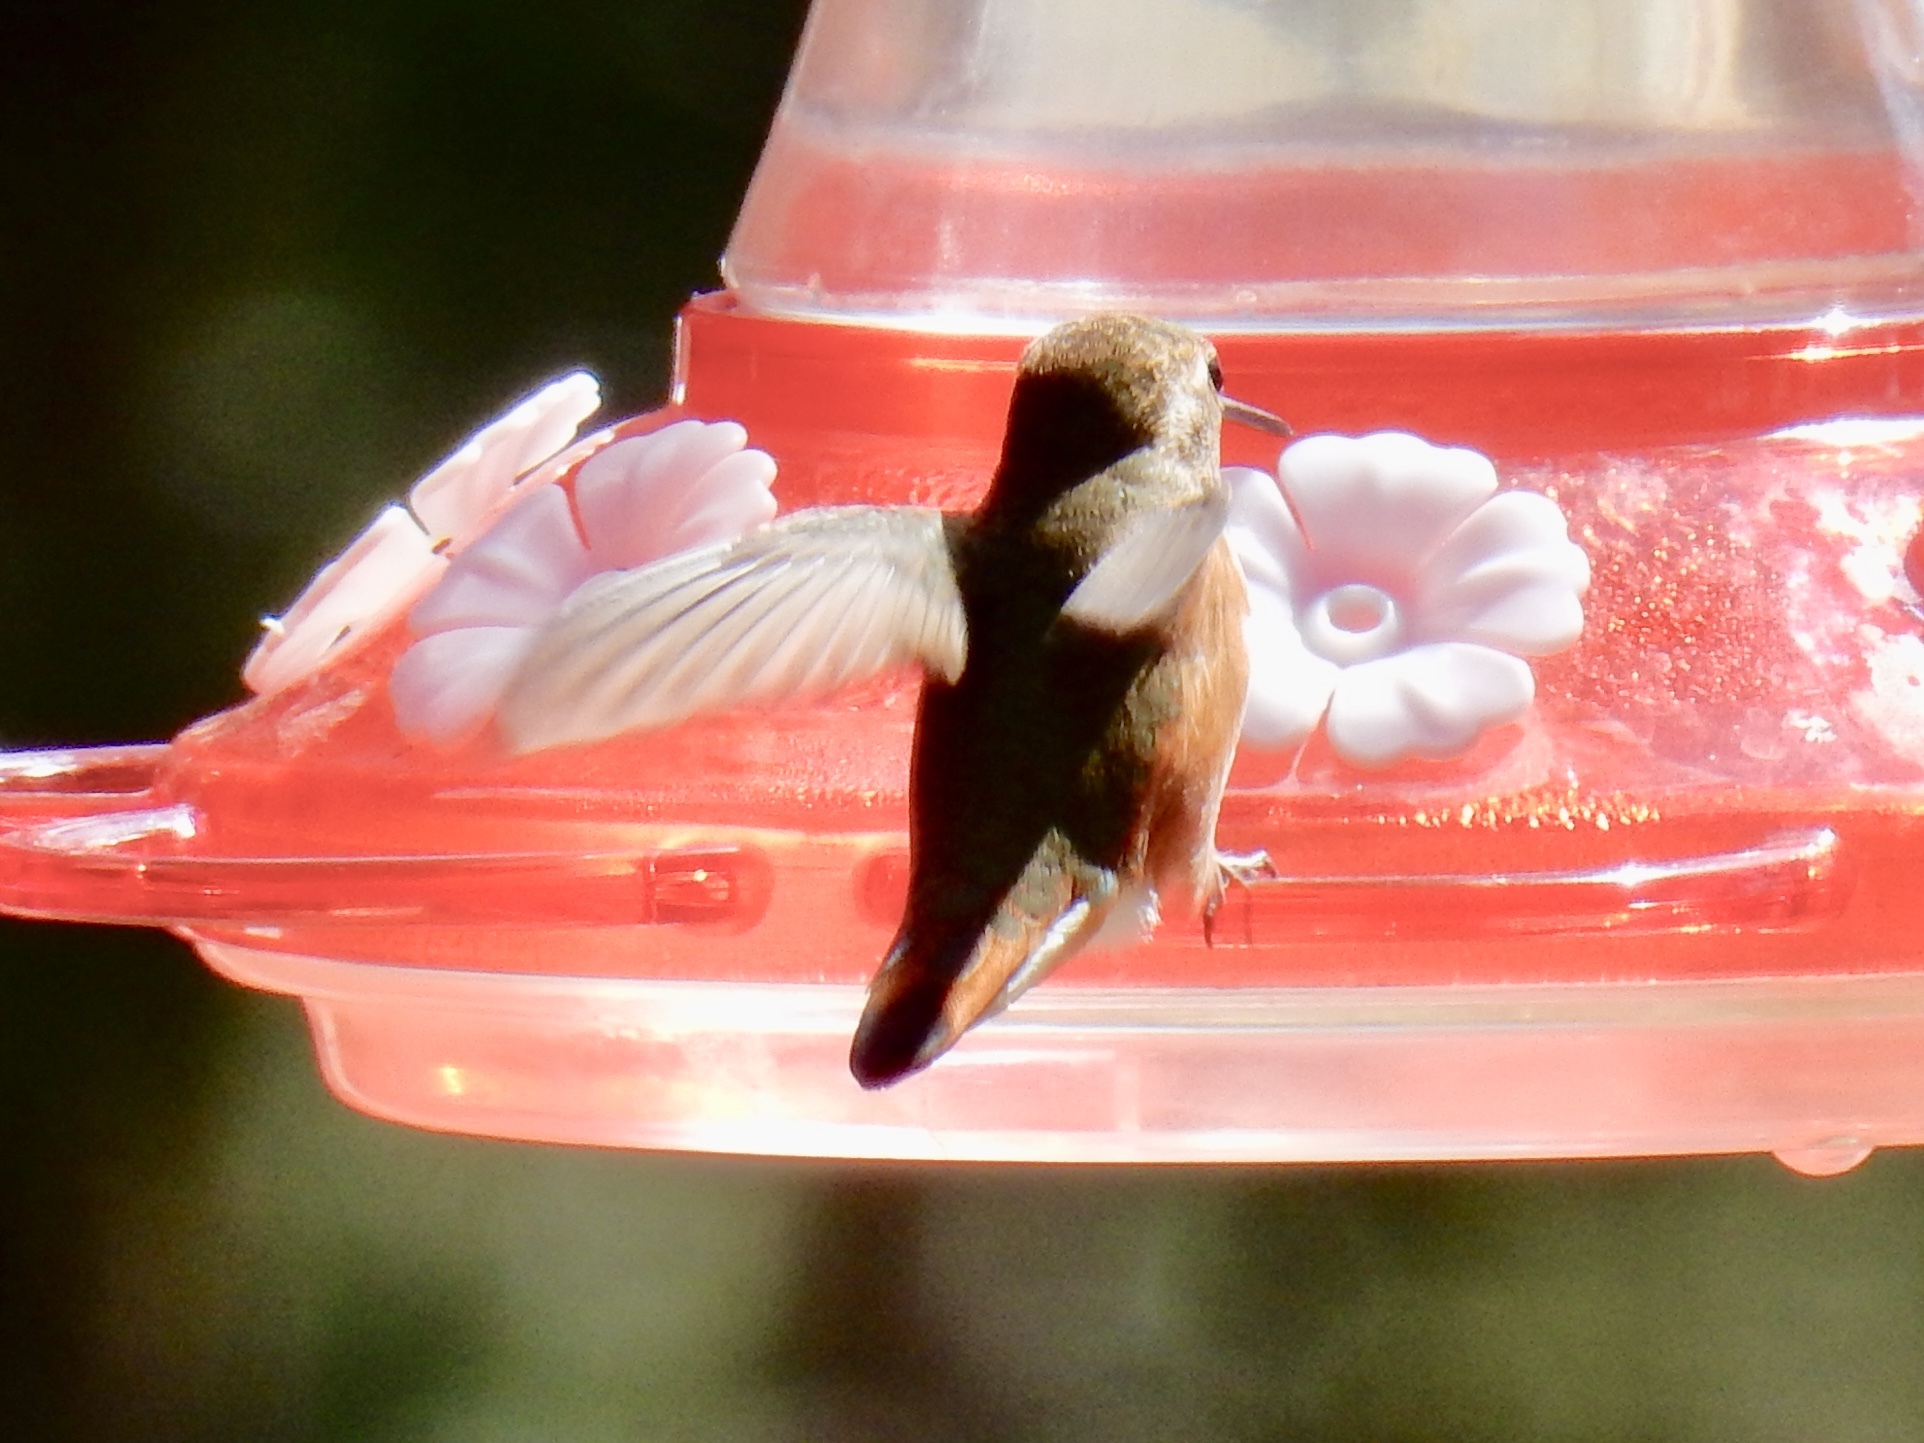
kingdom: Animalia
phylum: Chordata
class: Aves
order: Apodiformes
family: Trochilidae
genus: Selasphorus
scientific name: Selasphorus rufus
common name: Rufous hummingbird
